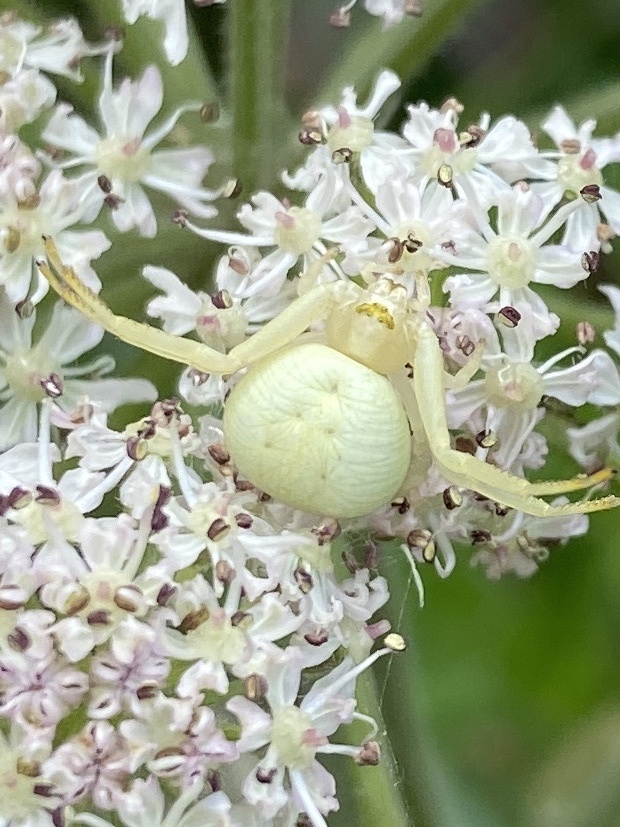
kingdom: Animalia
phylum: Arthropoda
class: Arachnida
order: Araneae
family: Thomisidae
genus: Misumena
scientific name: Misumena vatia
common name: Goldenrod crab spider
